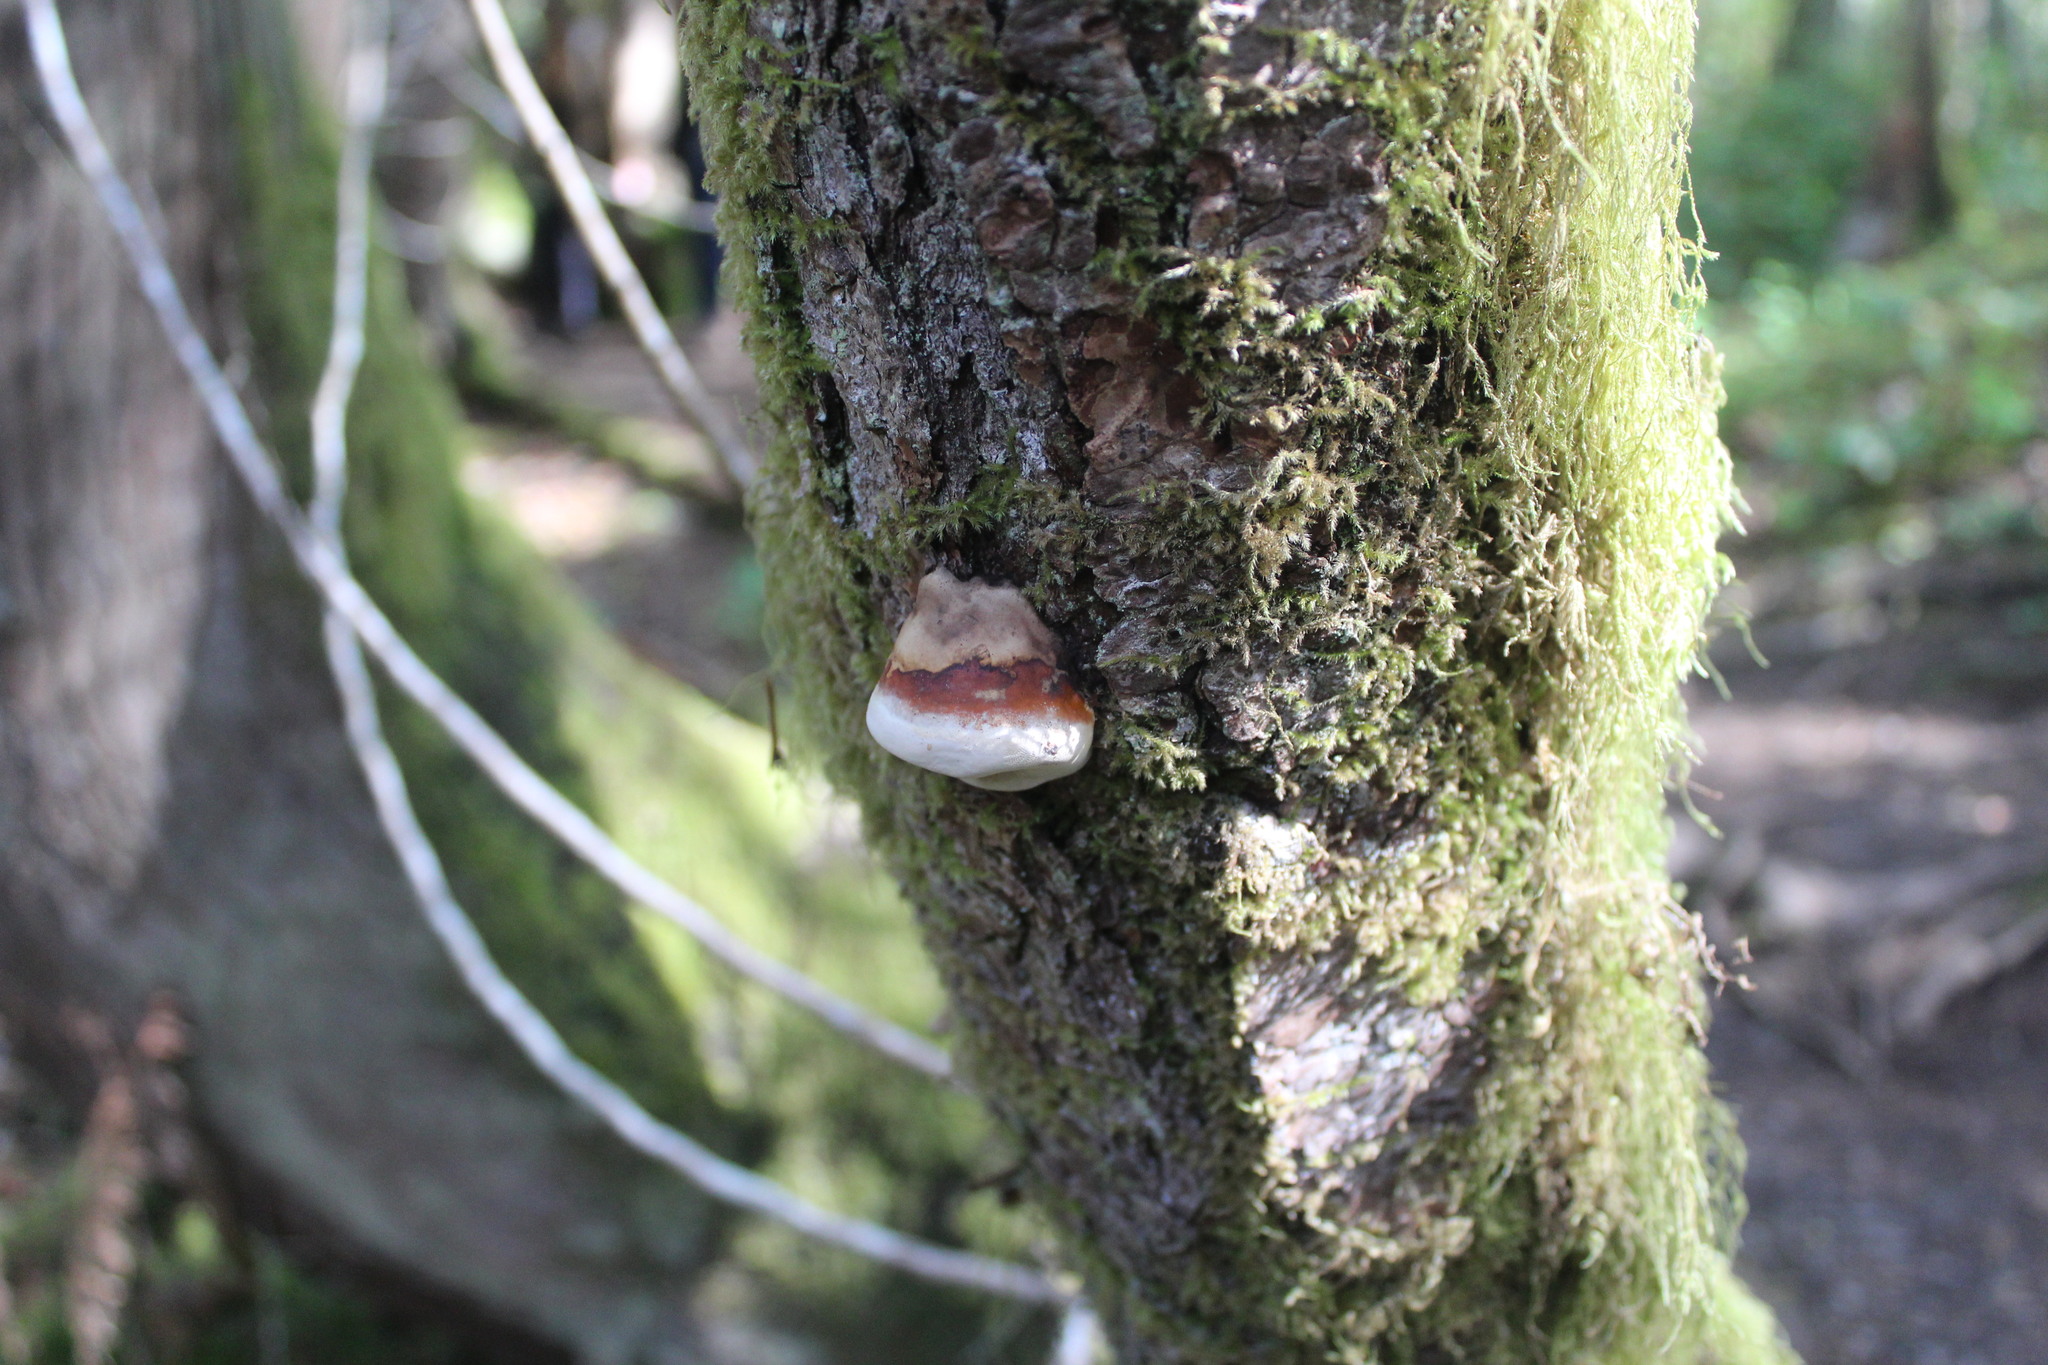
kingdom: Fungi
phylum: Basidiomycota
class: Agaricomycetes
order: Polyporales
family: Fomitopsidaceae
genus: Fomitopsis
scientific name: Fomitopsis mounceae
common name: Northern red belt
